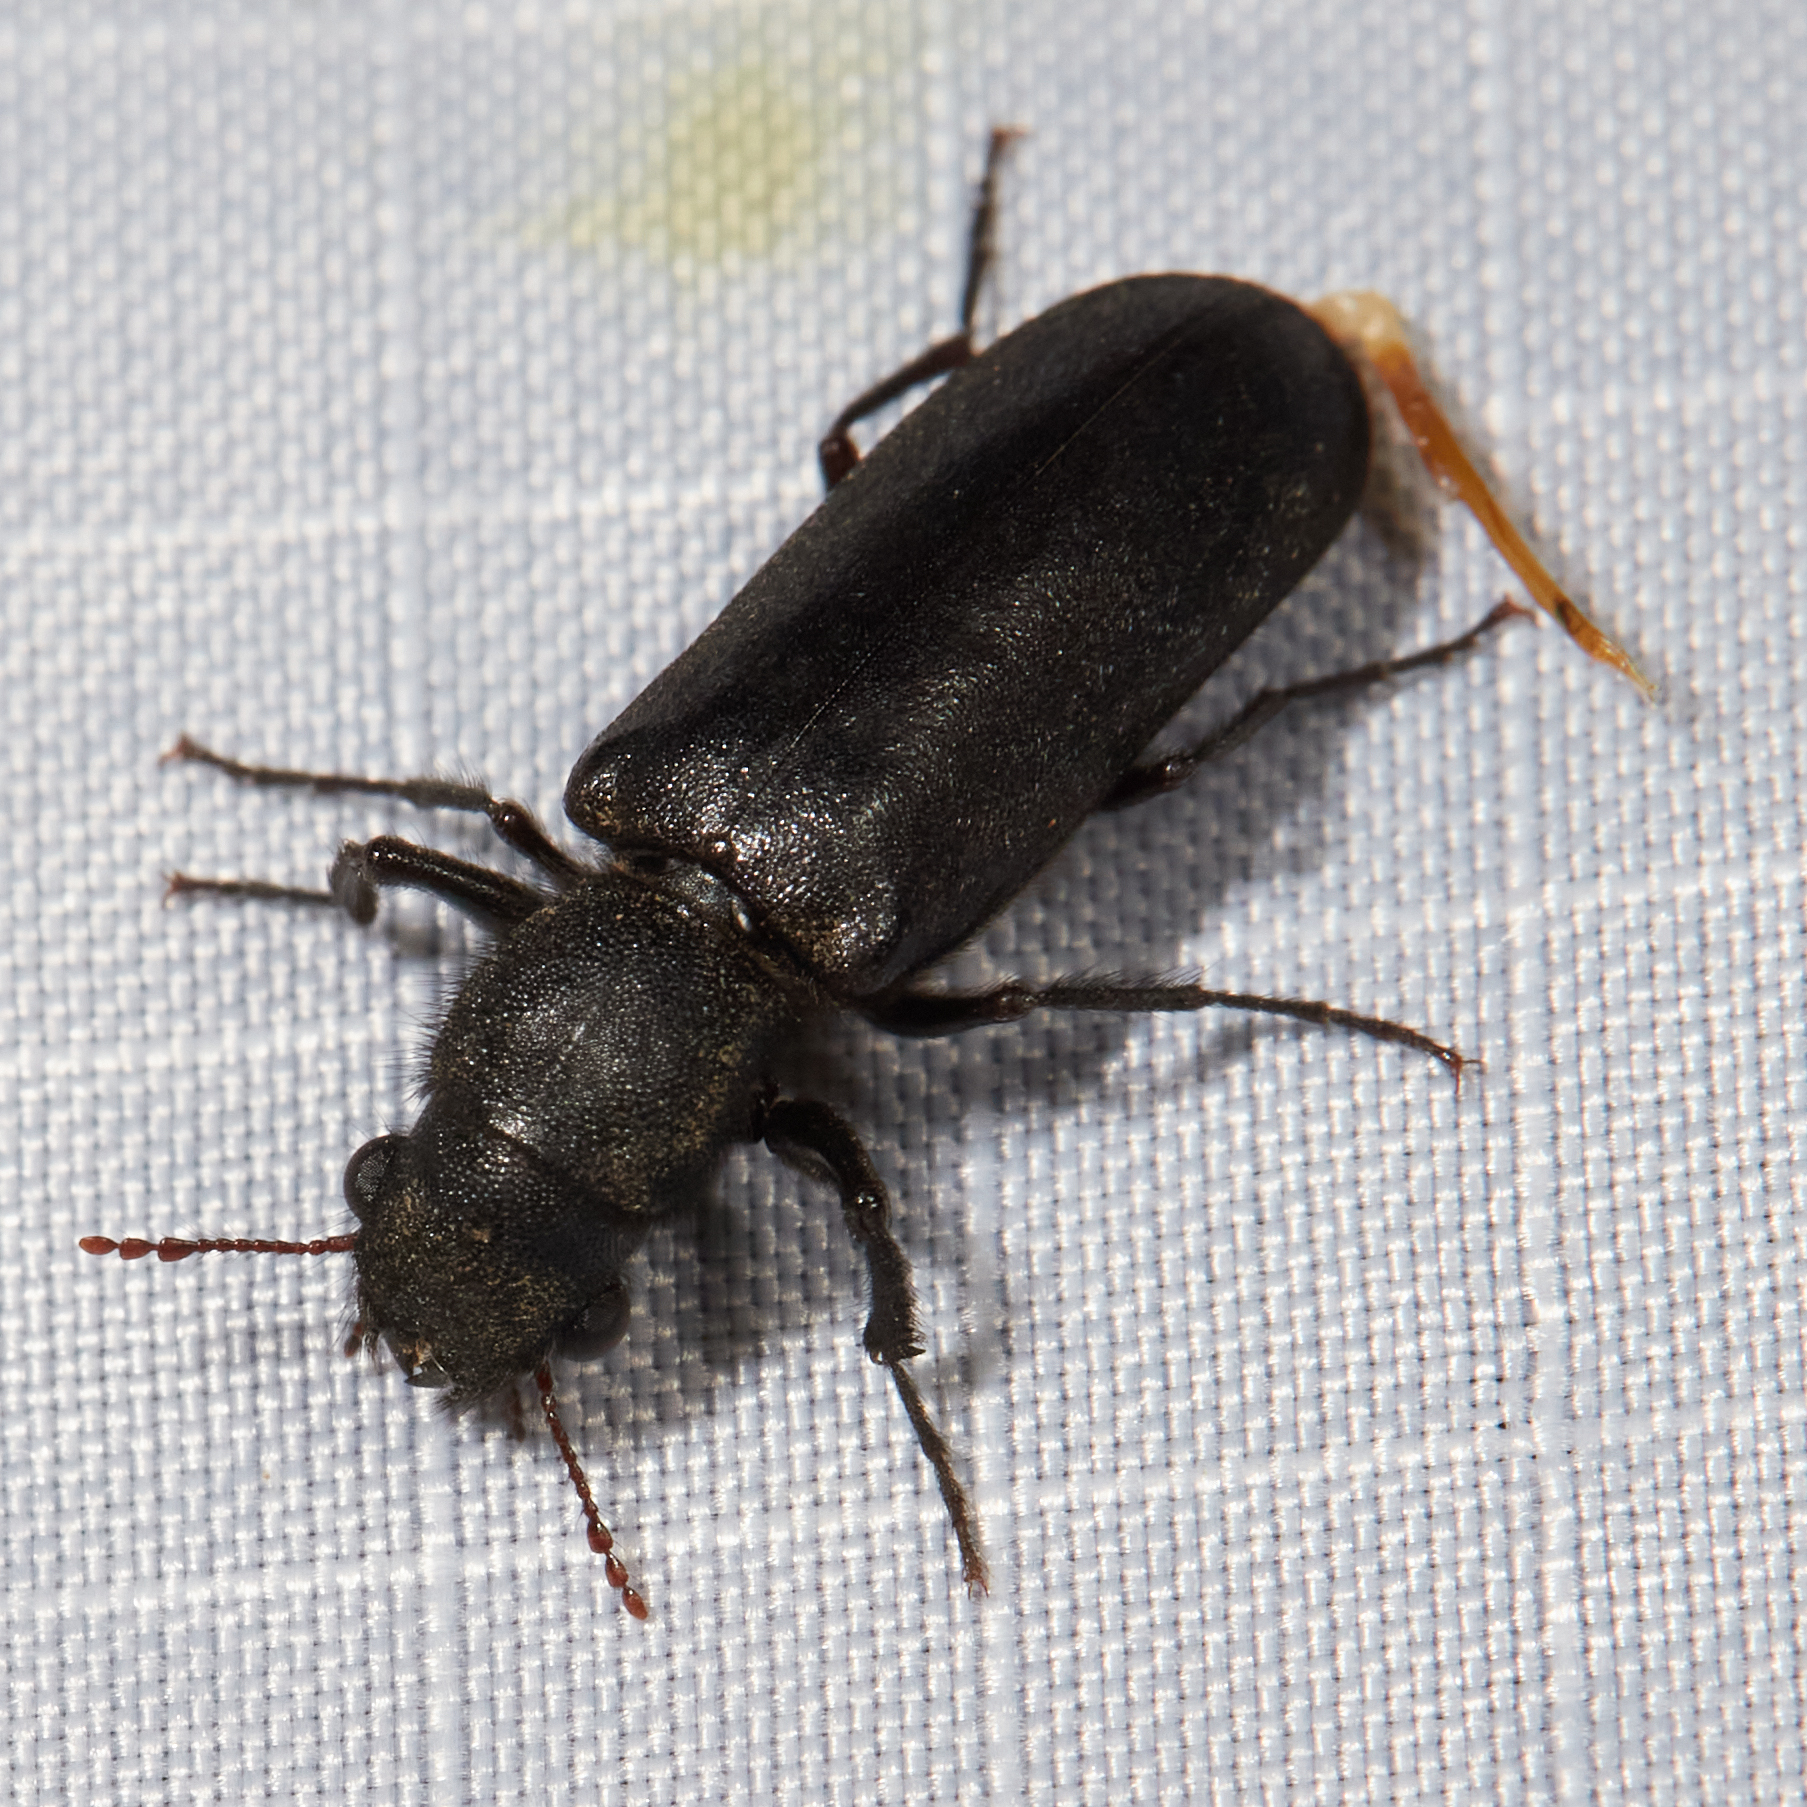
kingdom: Animalia
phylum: Arthropoda
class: Insecta
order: Coleoptera
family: Bostrichidae
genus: Polycaon
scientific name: Polycaon stoutii
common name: Powderpost beetle
